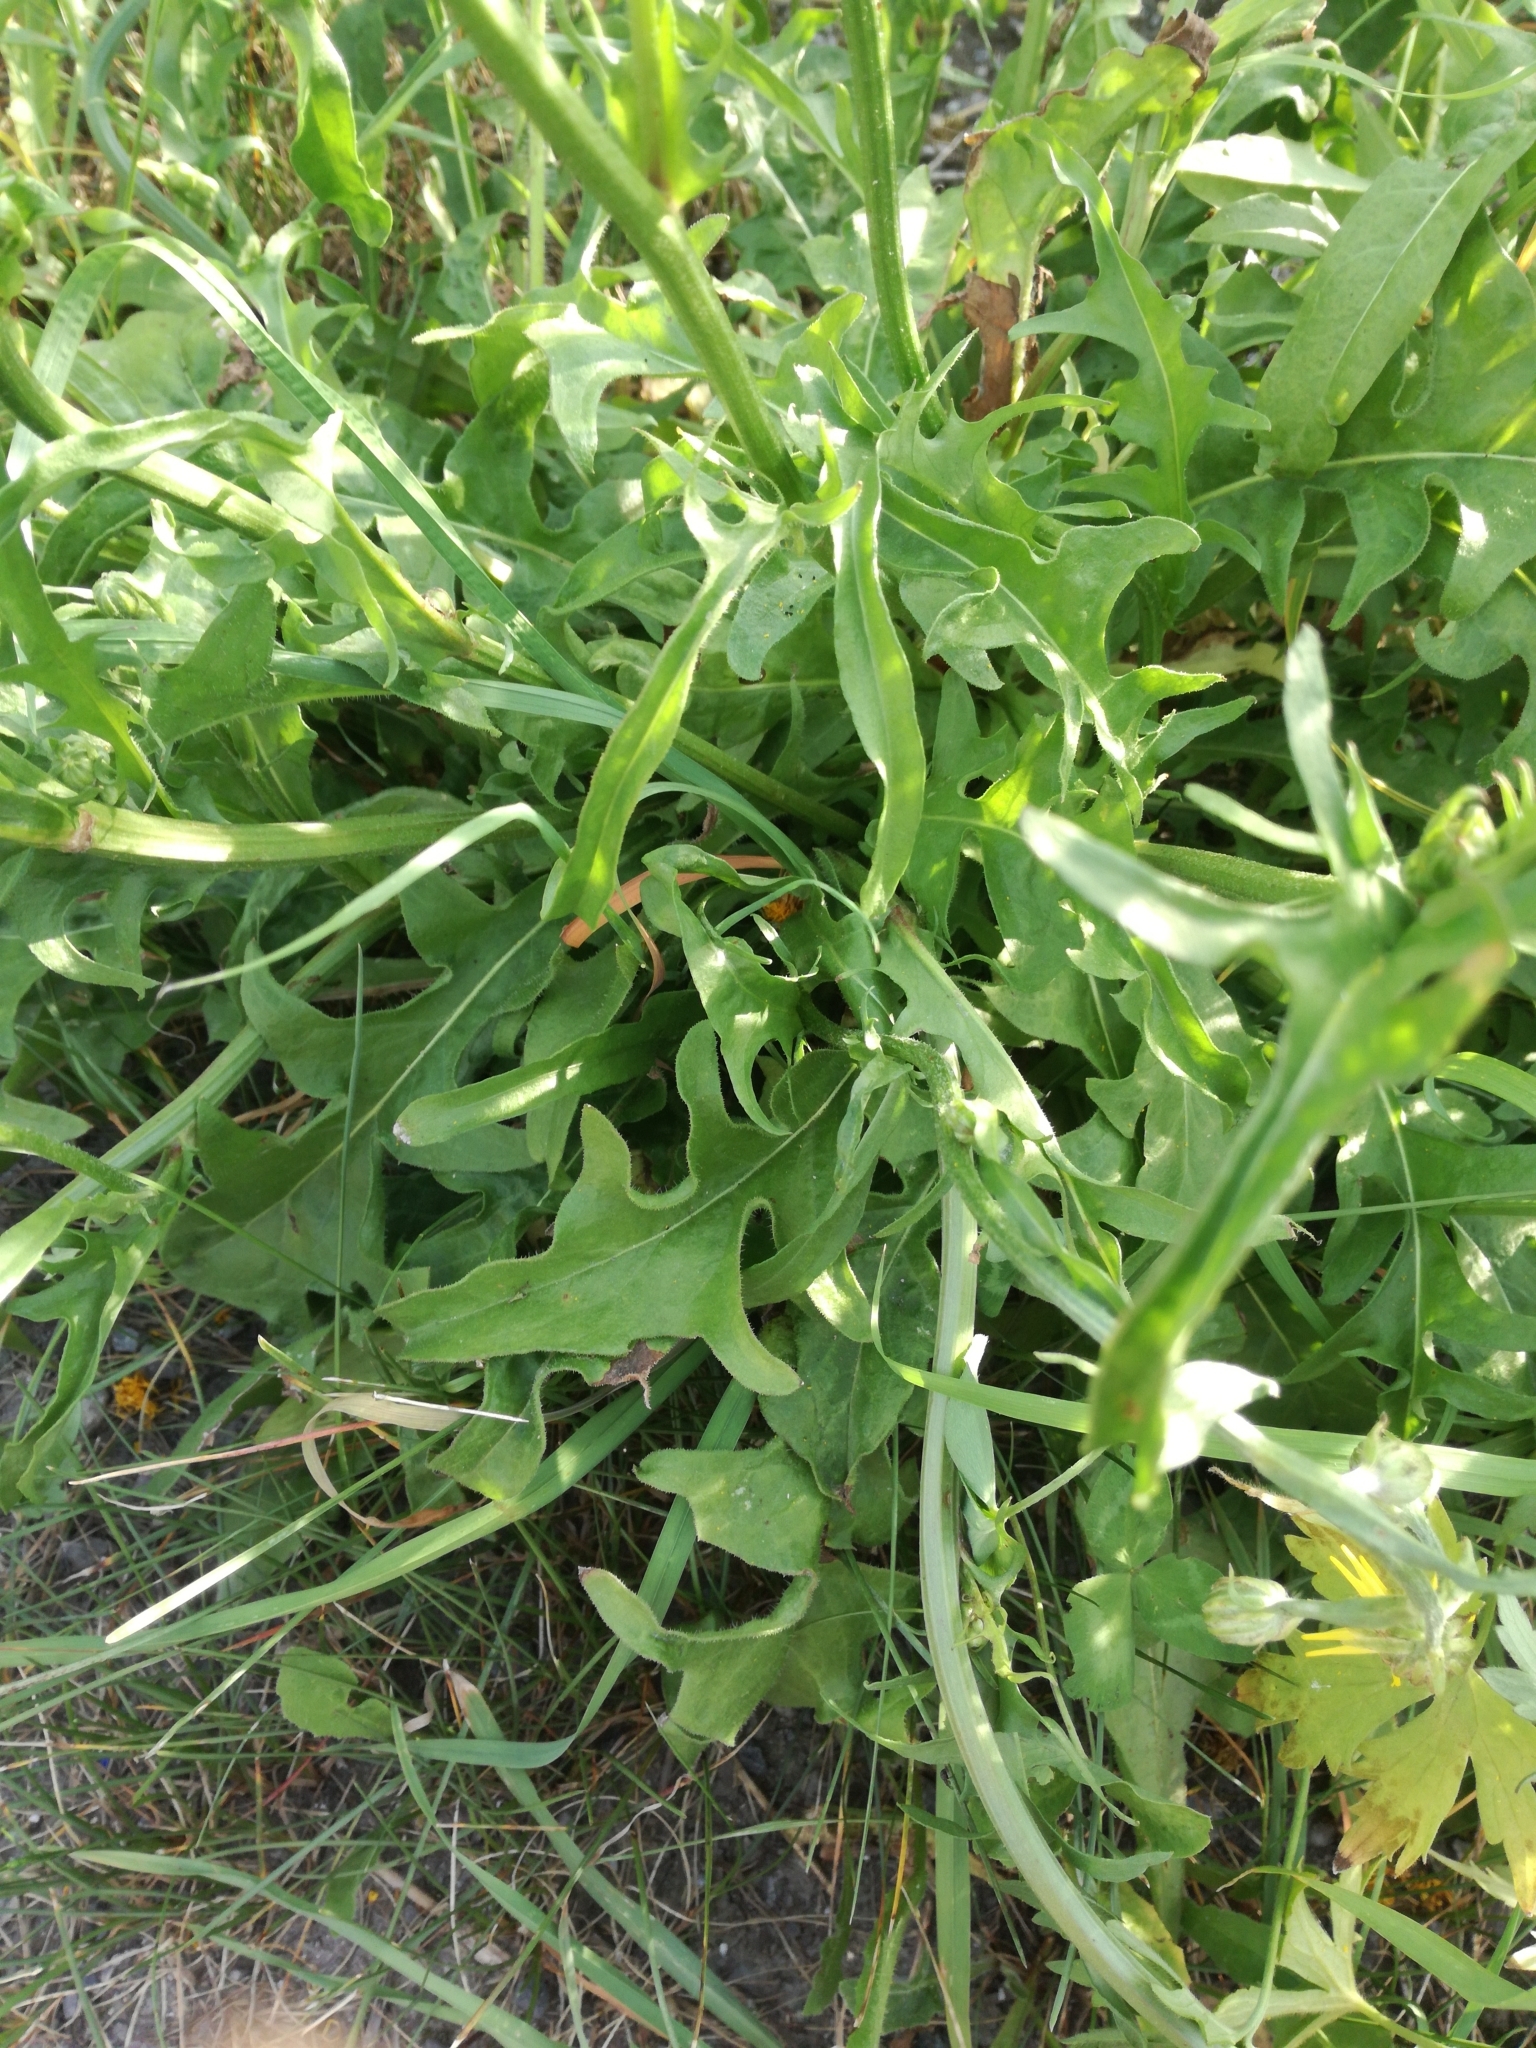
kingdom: Plantae
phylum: Tracheophyta
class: Magnoliopsida
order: Asterales
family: Asteraceae
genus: Picris
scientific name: Picris hieracioides
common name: Hawkweed oxtongue
